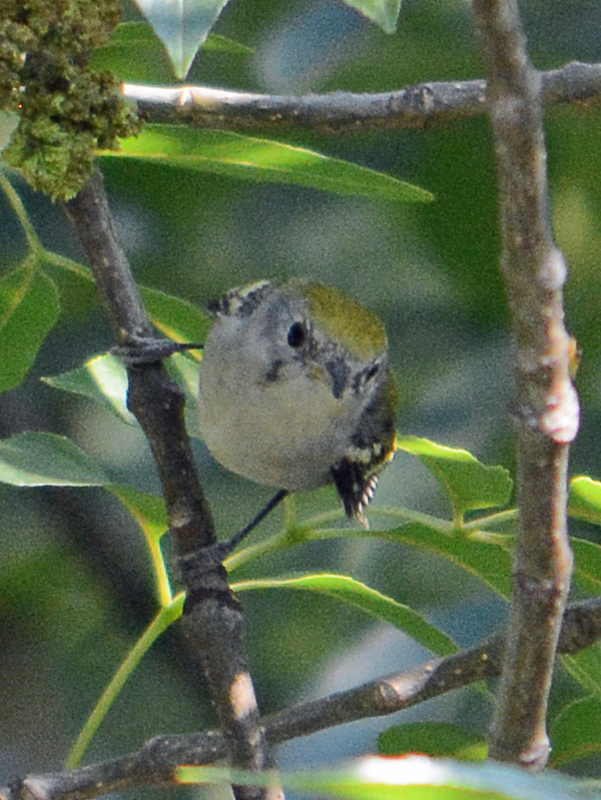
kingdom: Animalia
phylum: Chordata
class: Aves
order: Passeriformes
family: Parulidae
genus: Setophaga
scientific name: Setophaga pensylvanica
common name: Chestnut-sided warbler
